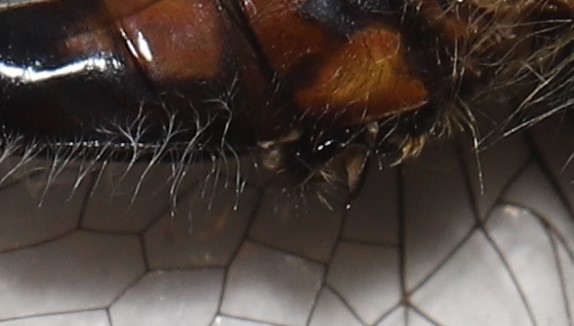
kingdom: Animalia
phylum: Arthropoda
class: Insecta
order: Odonata
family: Libellulidae
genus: Leucorrhinia
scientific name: Leucorrhinia hudsonica
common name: Hudsonian whiteface
